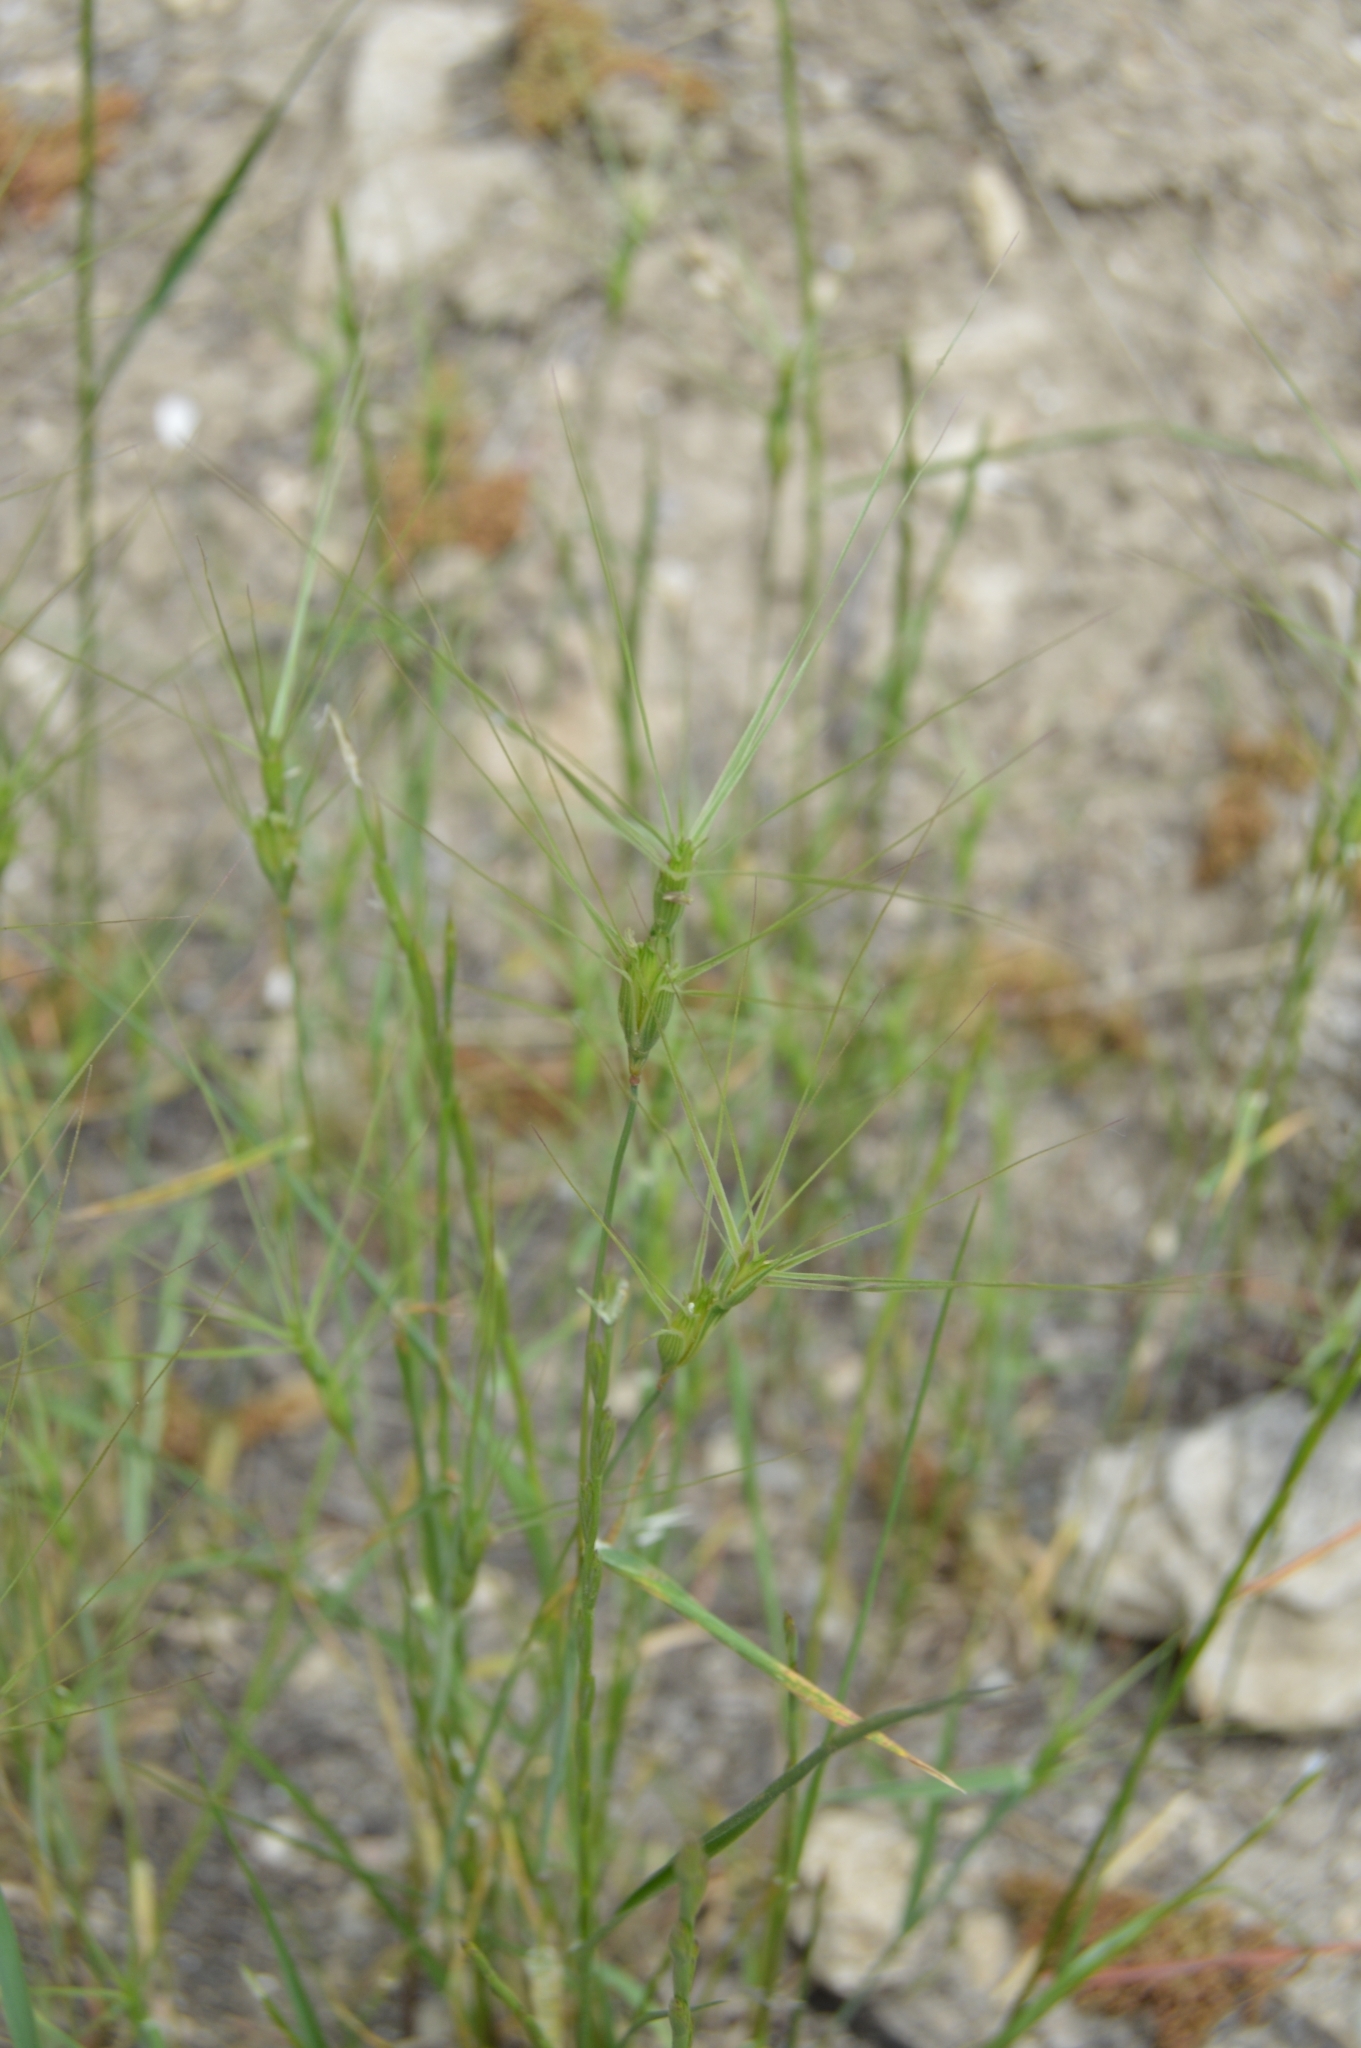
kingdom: Plantae
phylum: Tracheophyta
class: Liliopsida
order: Poales
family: Poaceae
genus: Aegilops
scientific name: Aegilops biuncialis
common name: Mediterranean aegilops
